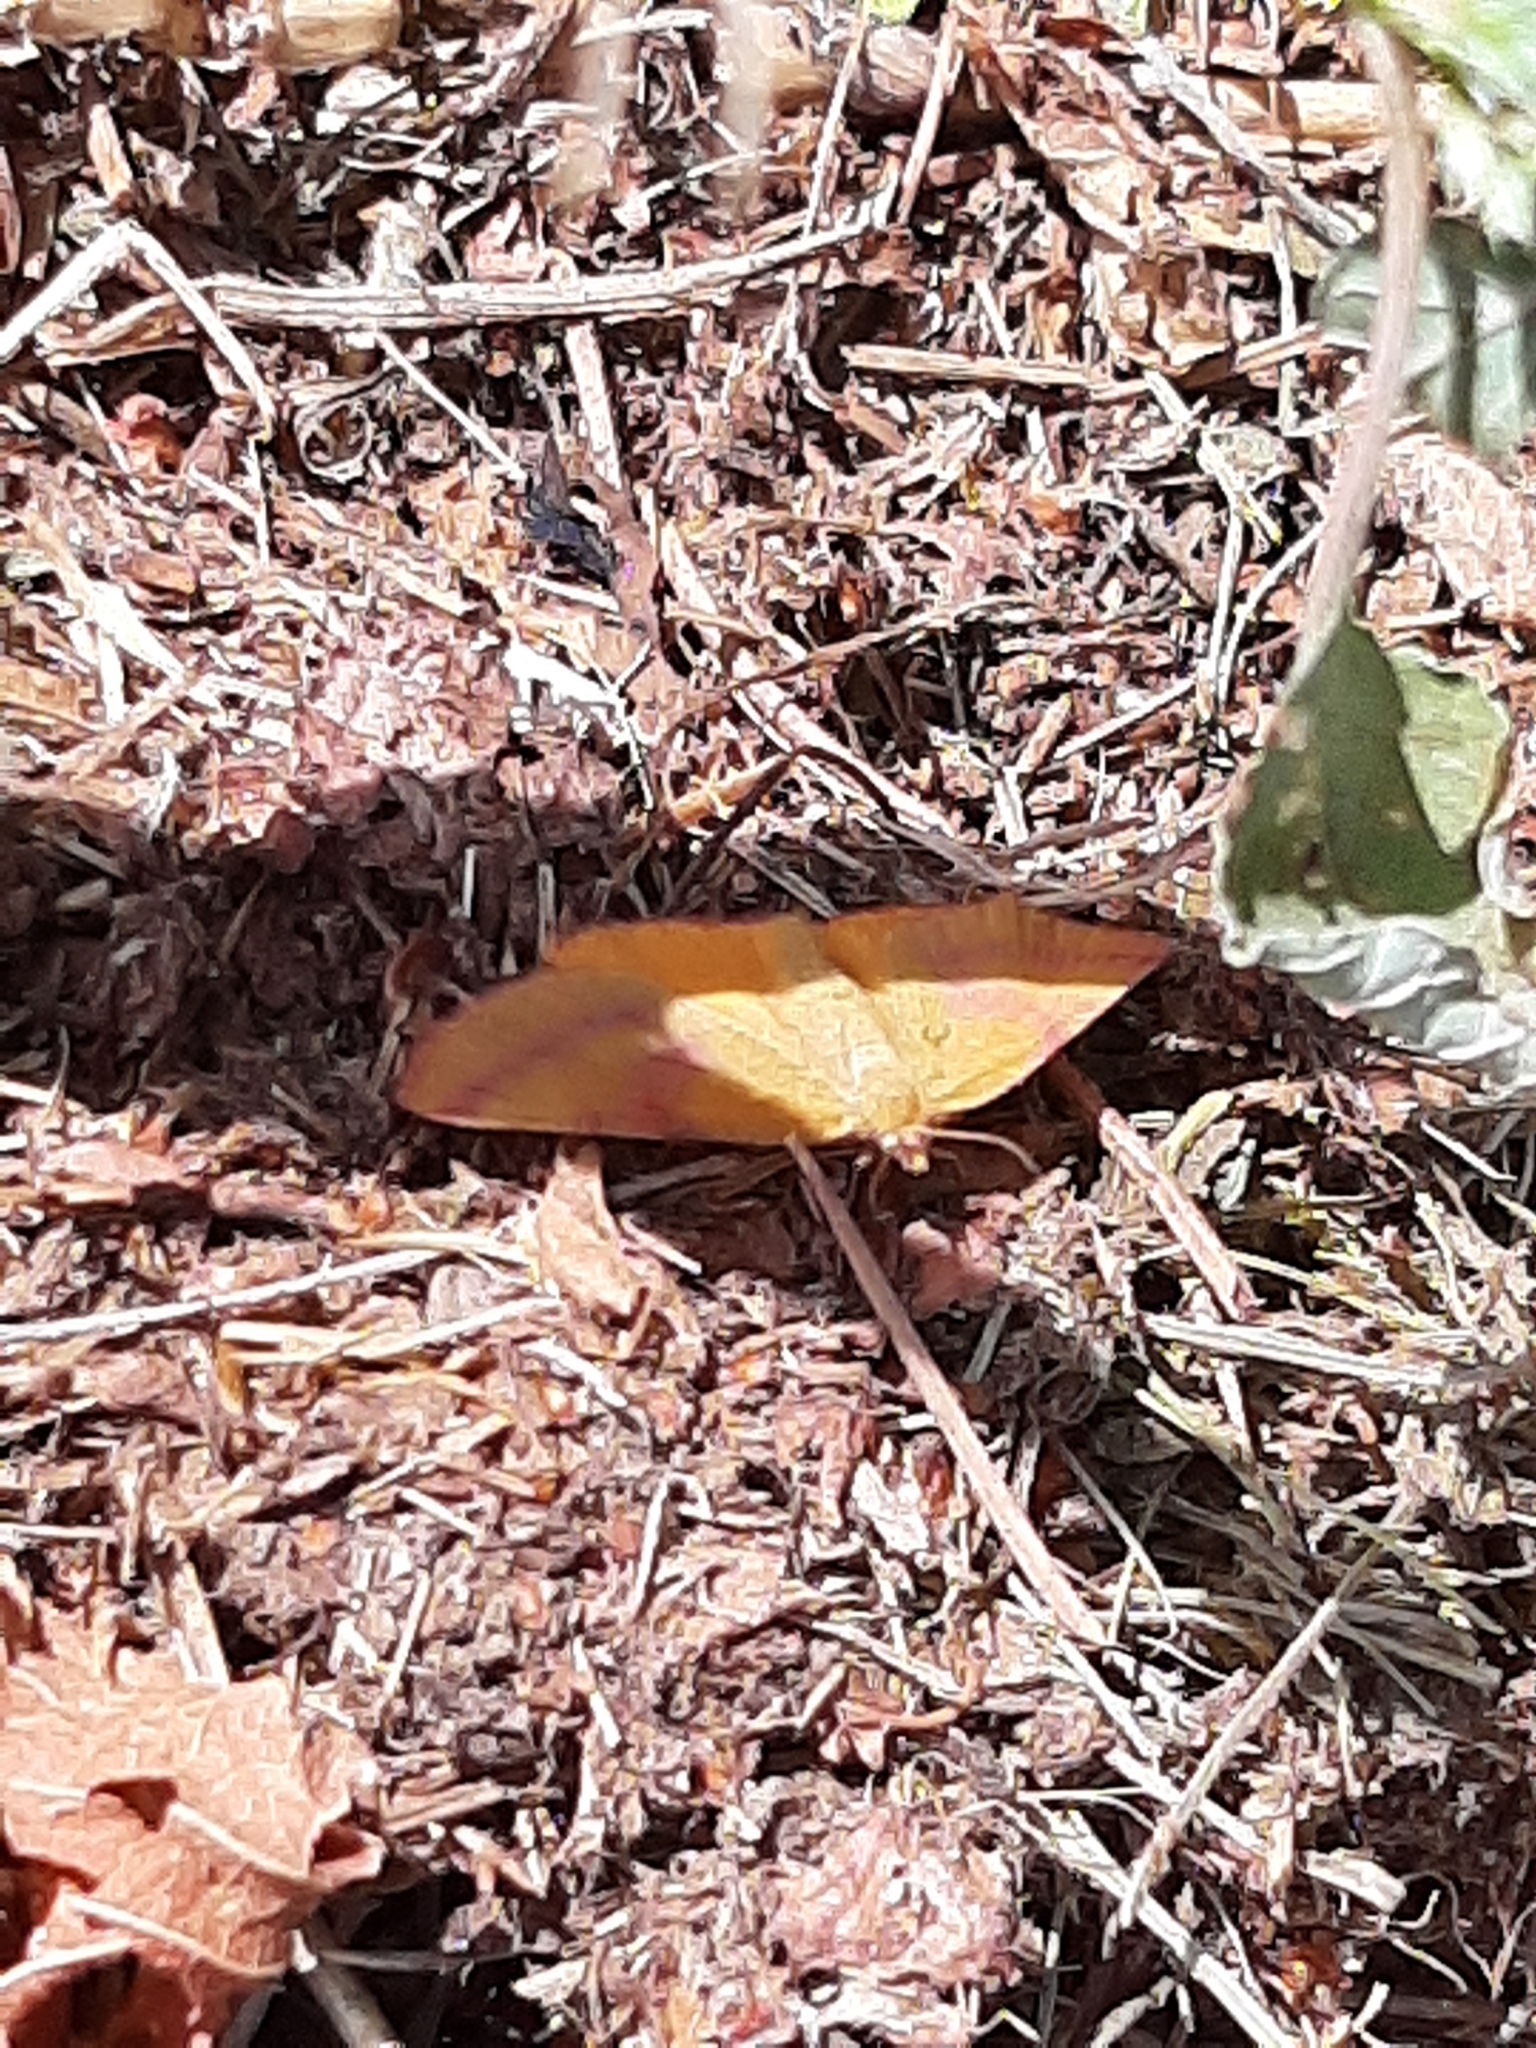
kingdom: Animalia
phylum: Arthropoda
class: Insecta
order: Lepidoptera
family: Geometridae
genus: Lythria
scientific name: Lythria purpuraria
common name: Purple-barred yellow
